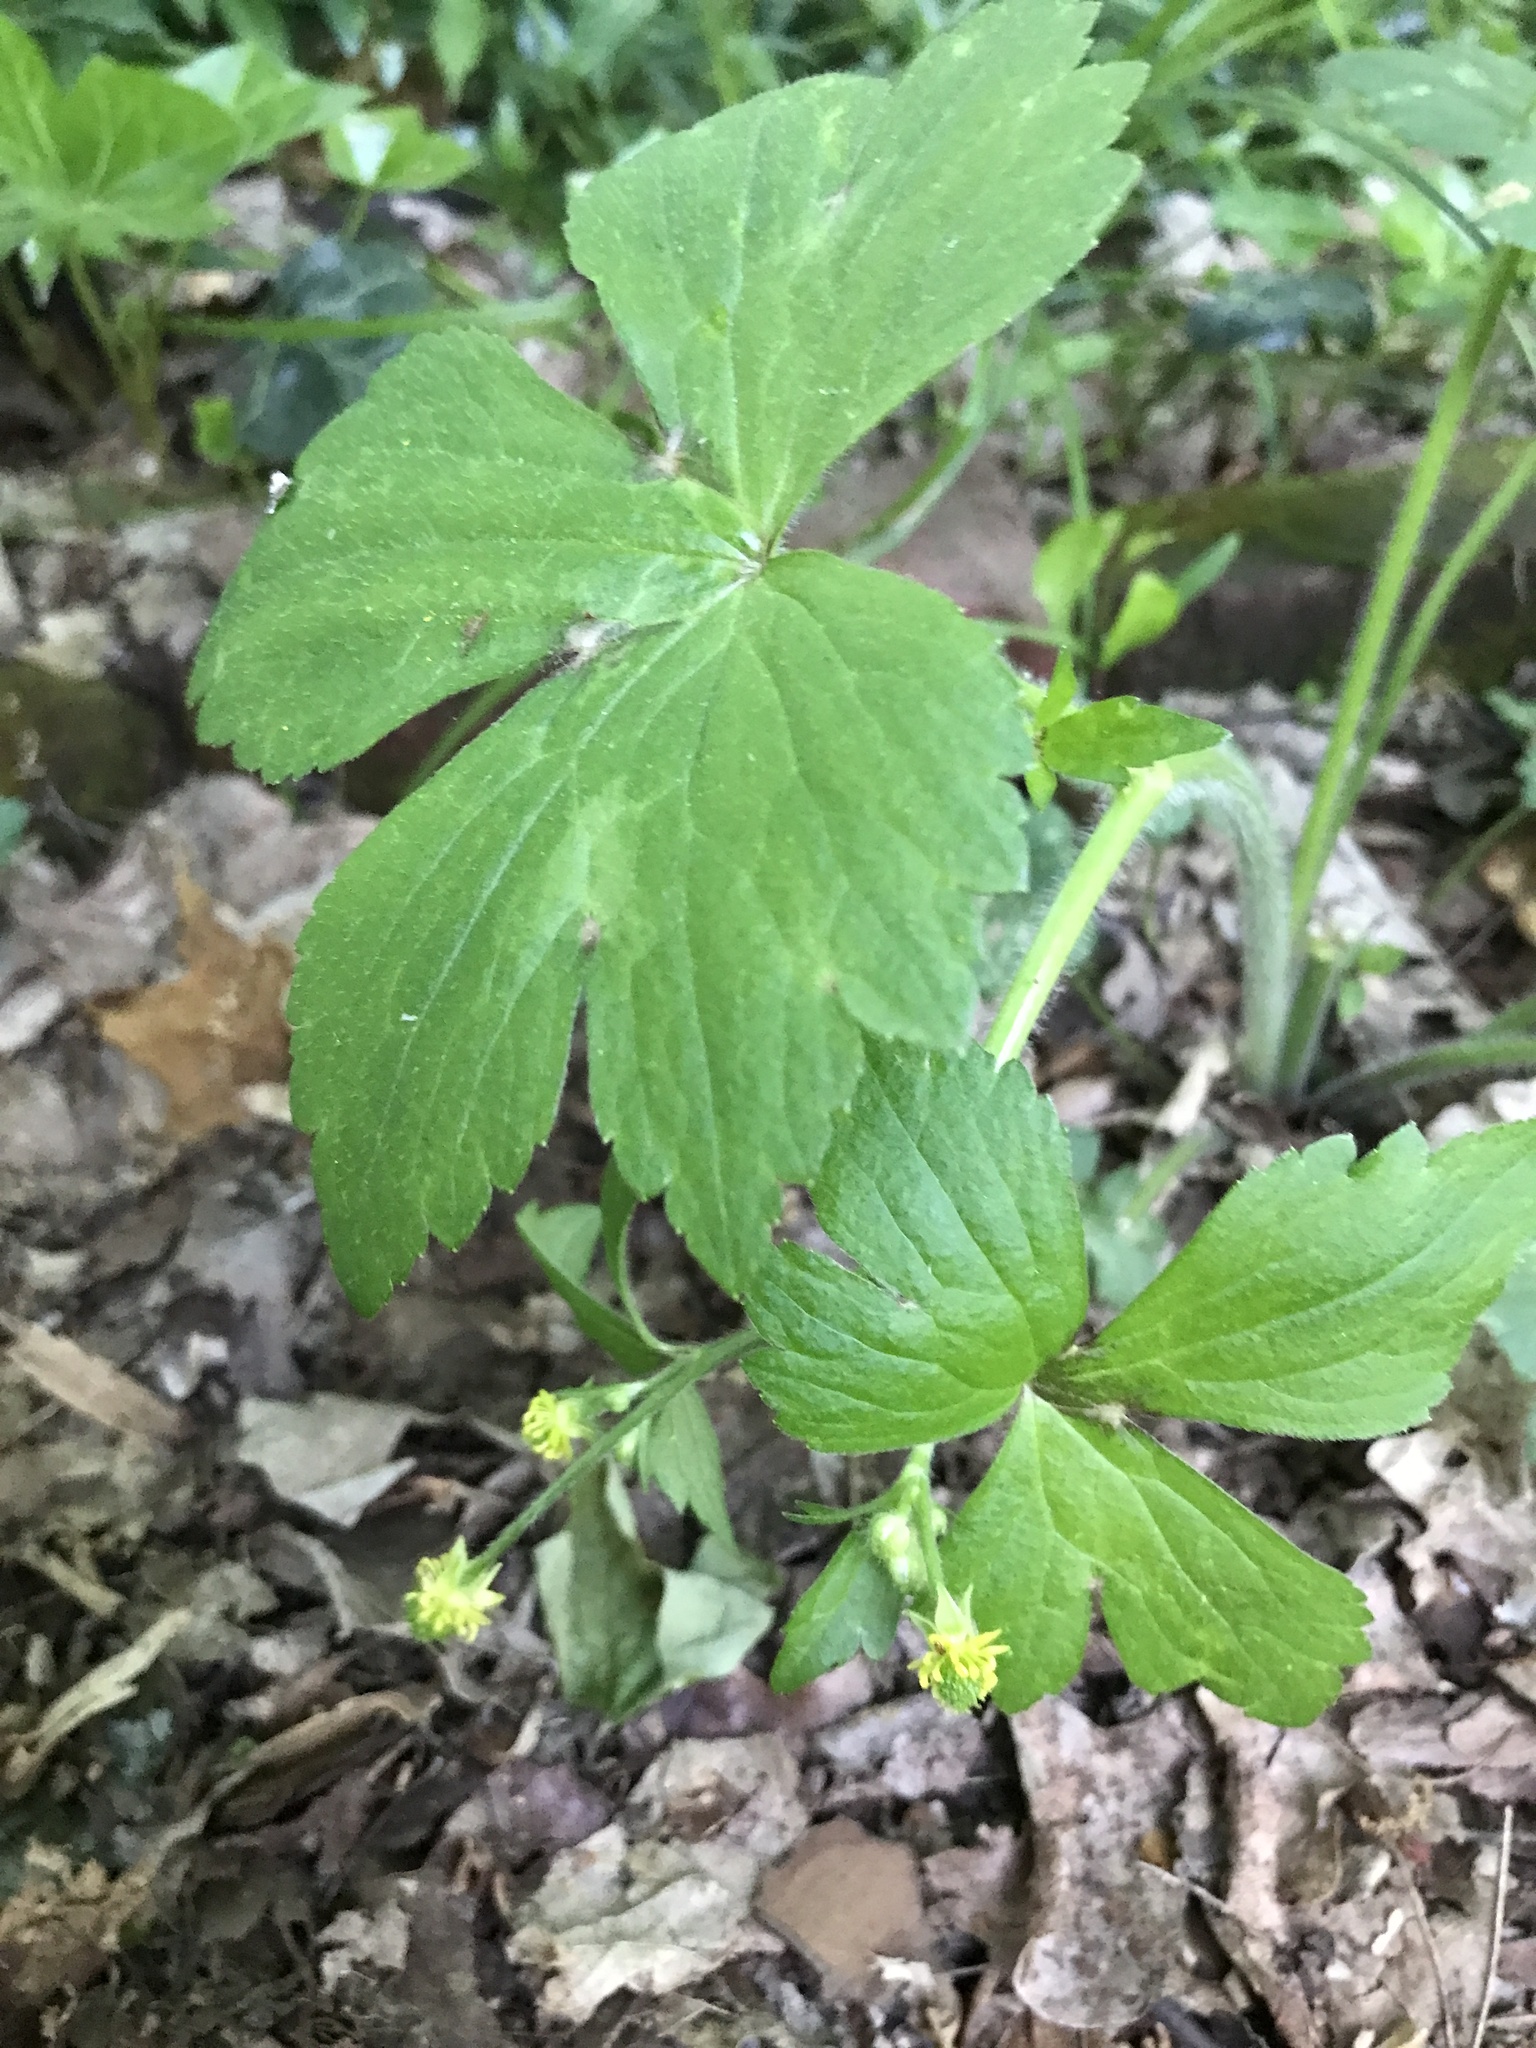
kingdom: Plantae
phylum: Tracheophyta
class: Magnoliopsida
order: Ranunculales
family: Ranunculaceae
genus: Ranunculus
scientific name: Ranunculus recurvatus
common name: Blisterwort
